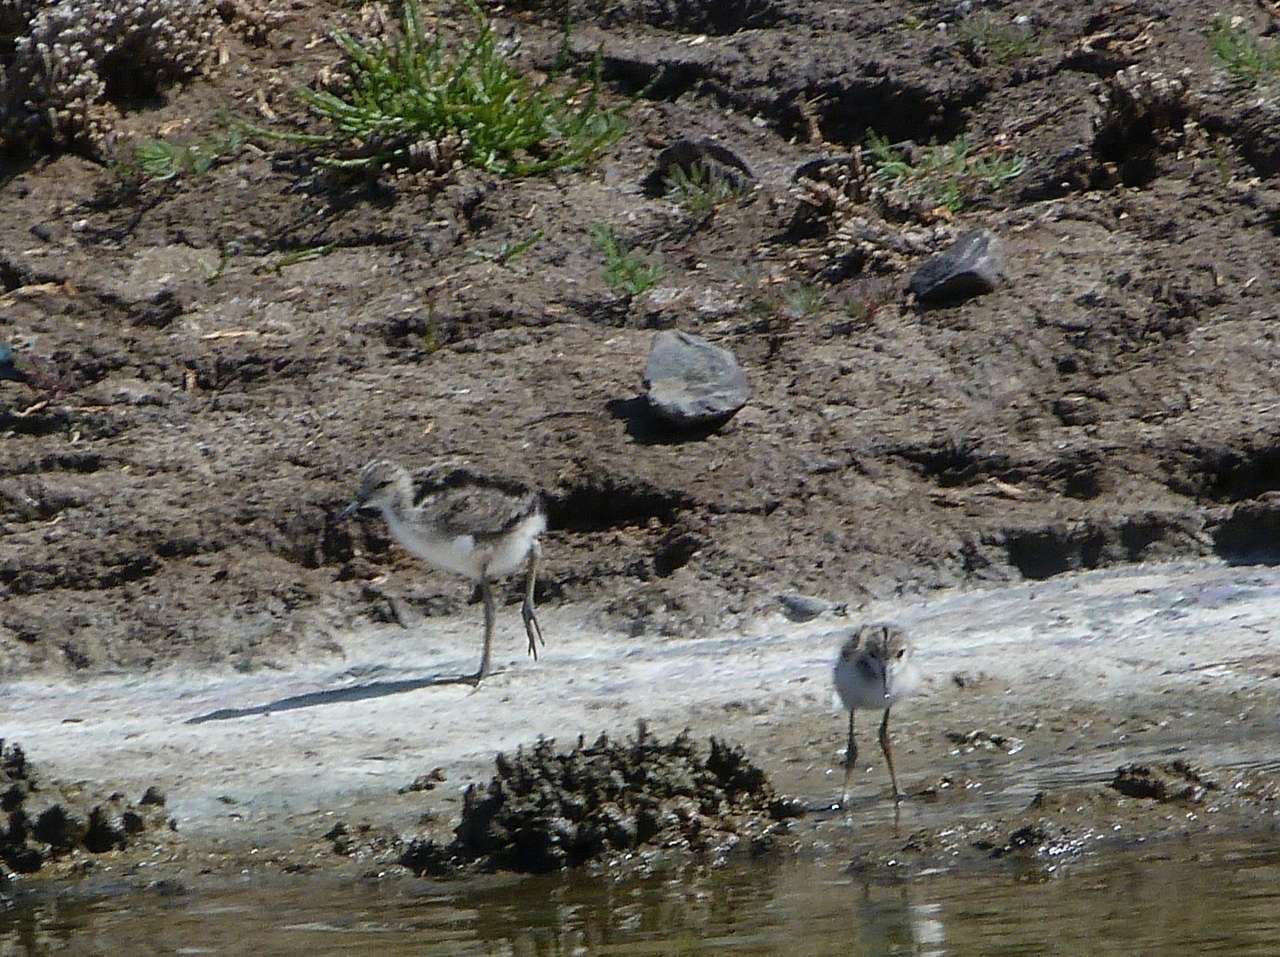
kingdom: Animalia
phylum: Chordata
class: Aves
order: Charadriiformes
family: Recurvirostridae
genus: Himantopus
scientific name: Himantopus leucocephalus
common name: White-headed stilt
